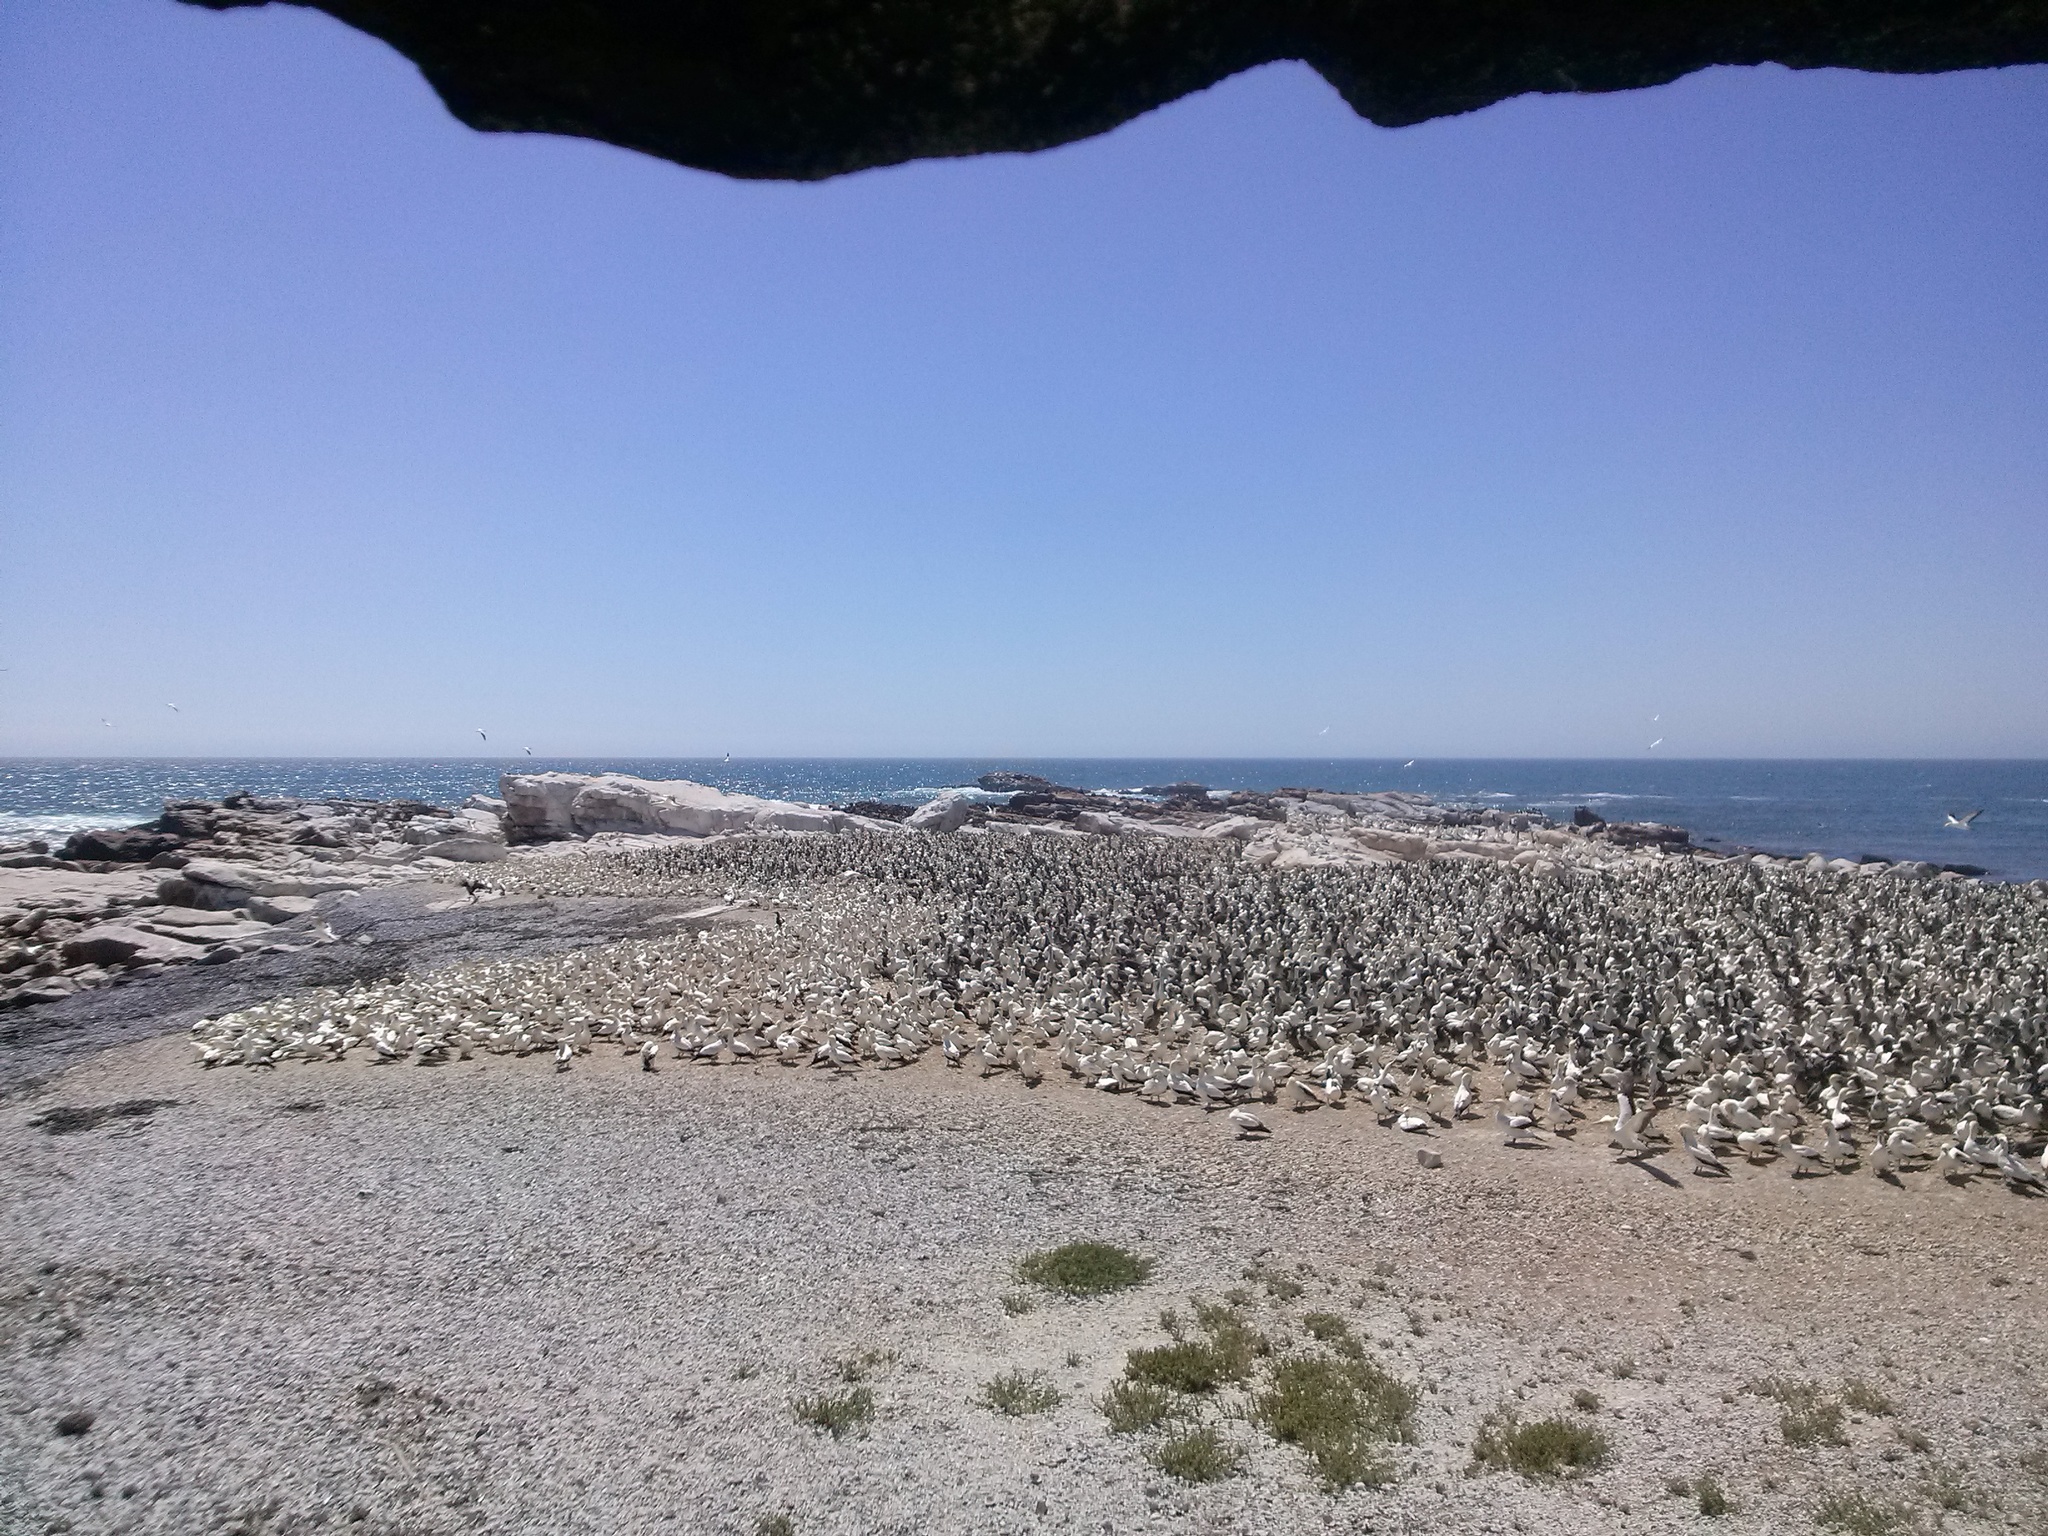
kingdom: Animalia
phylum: Chordata
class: Aves
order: Suliformes
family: Sulidae
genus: Morus
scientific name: Morus capensis
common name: Cape gannet
